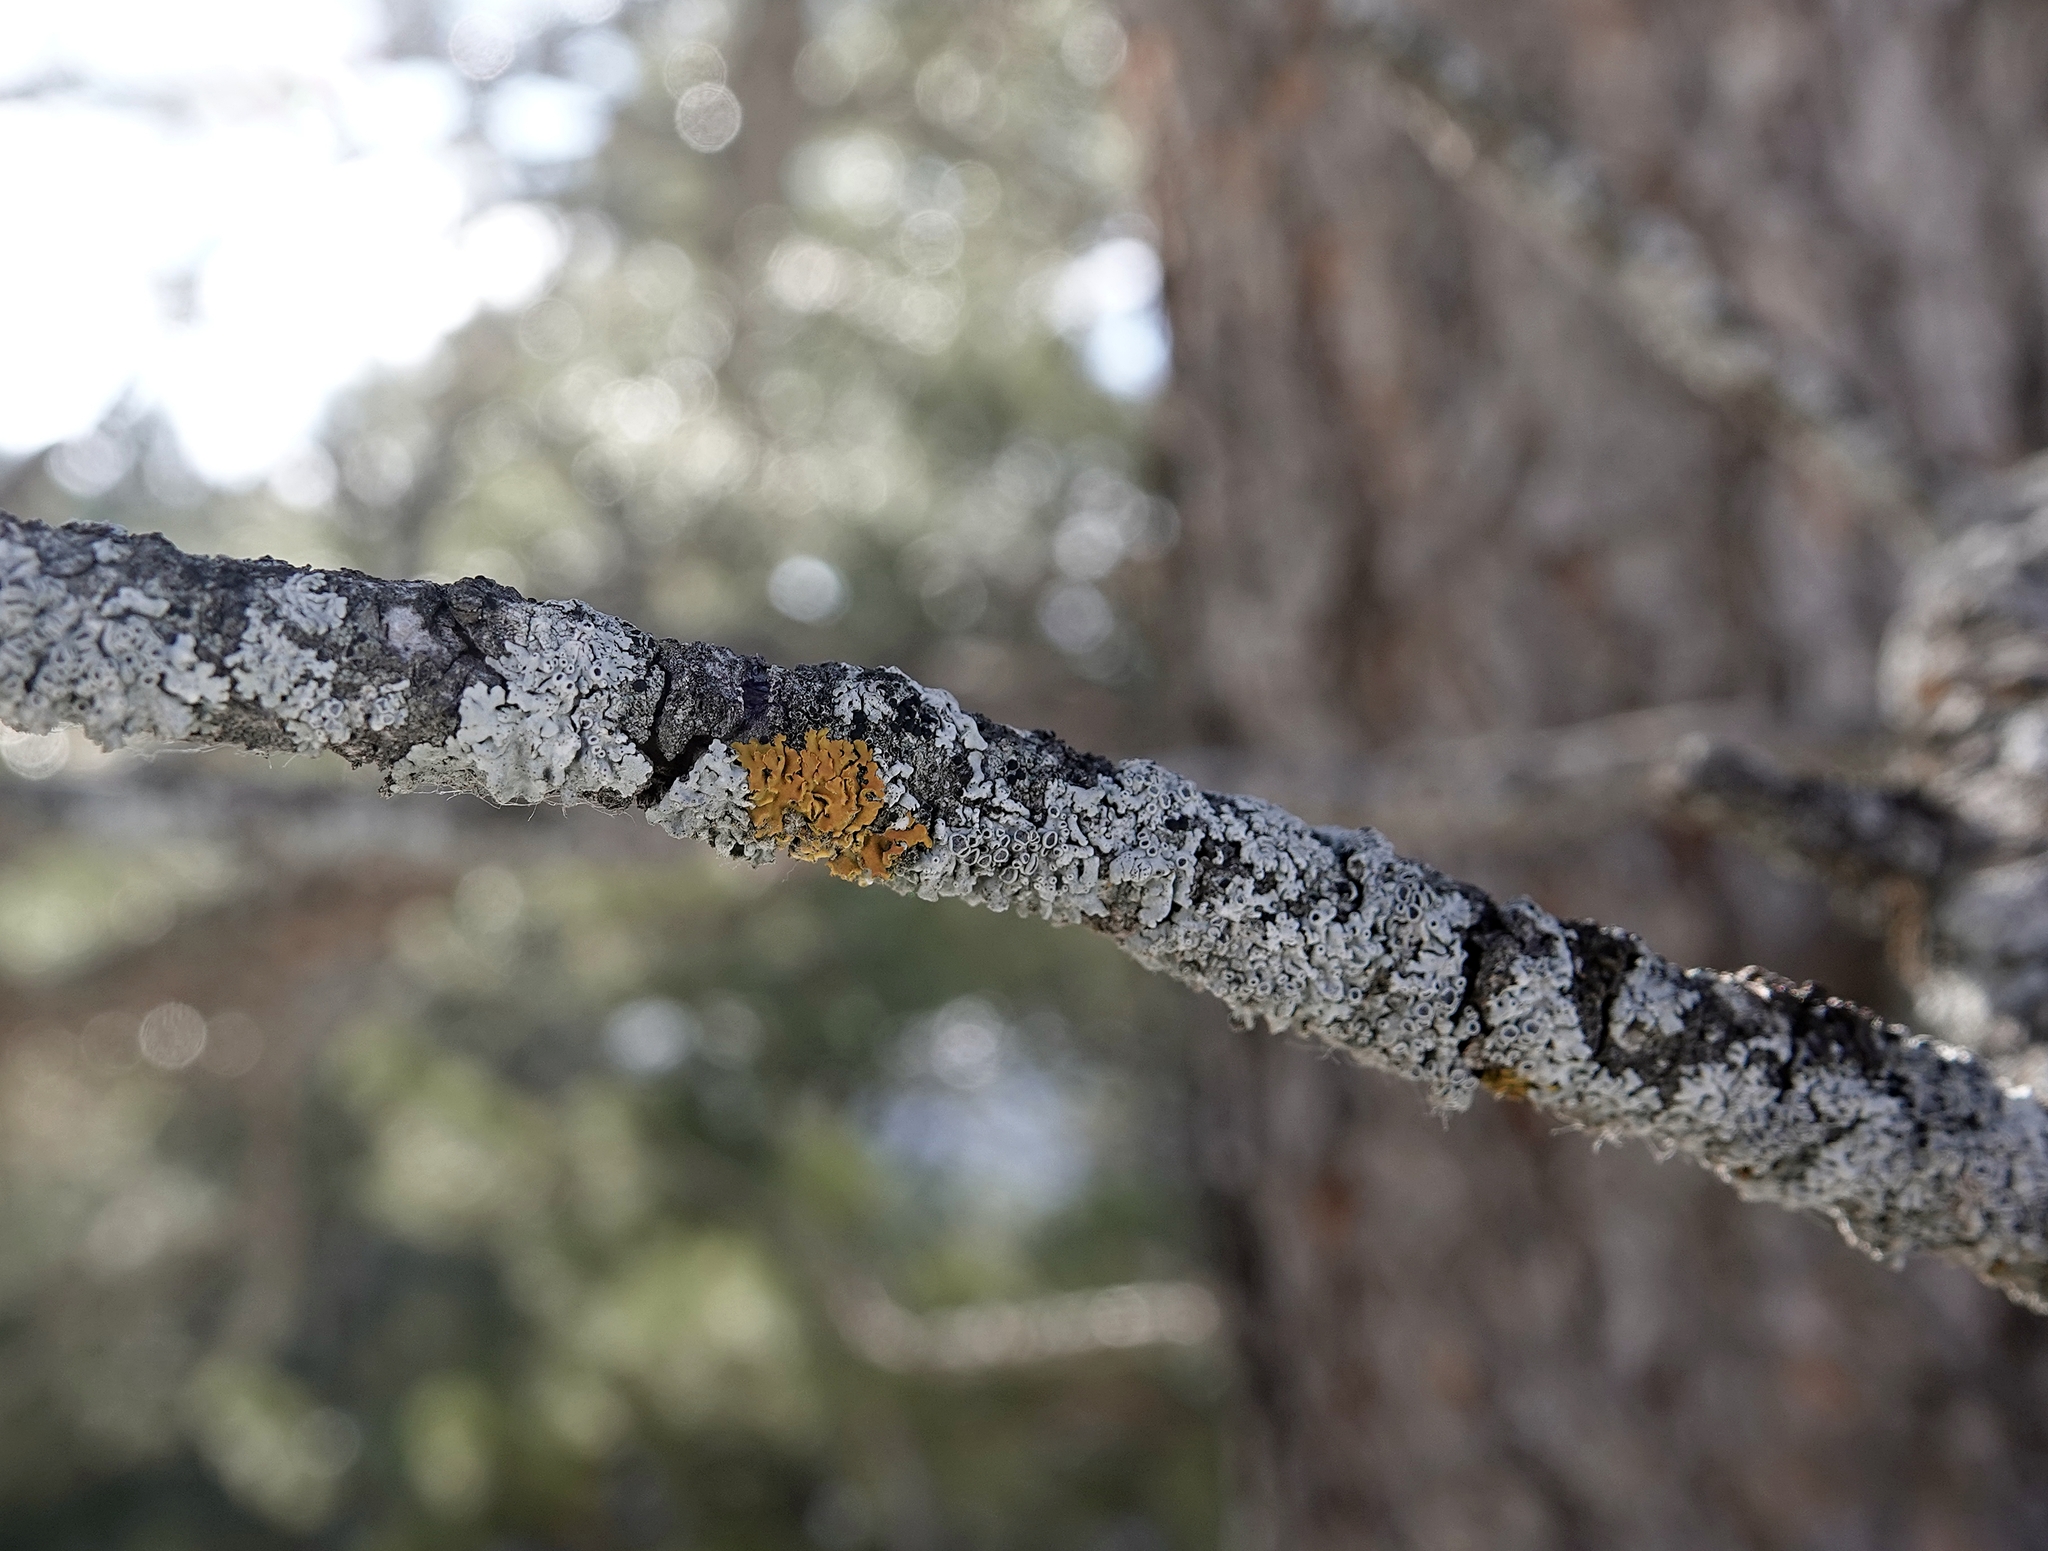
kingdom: Fungi
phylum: Ascomycota
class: Lecanoromycetes
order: Teloschistales
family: Teloschistaceae
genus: Oxneria
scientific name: Oxneria fallax
